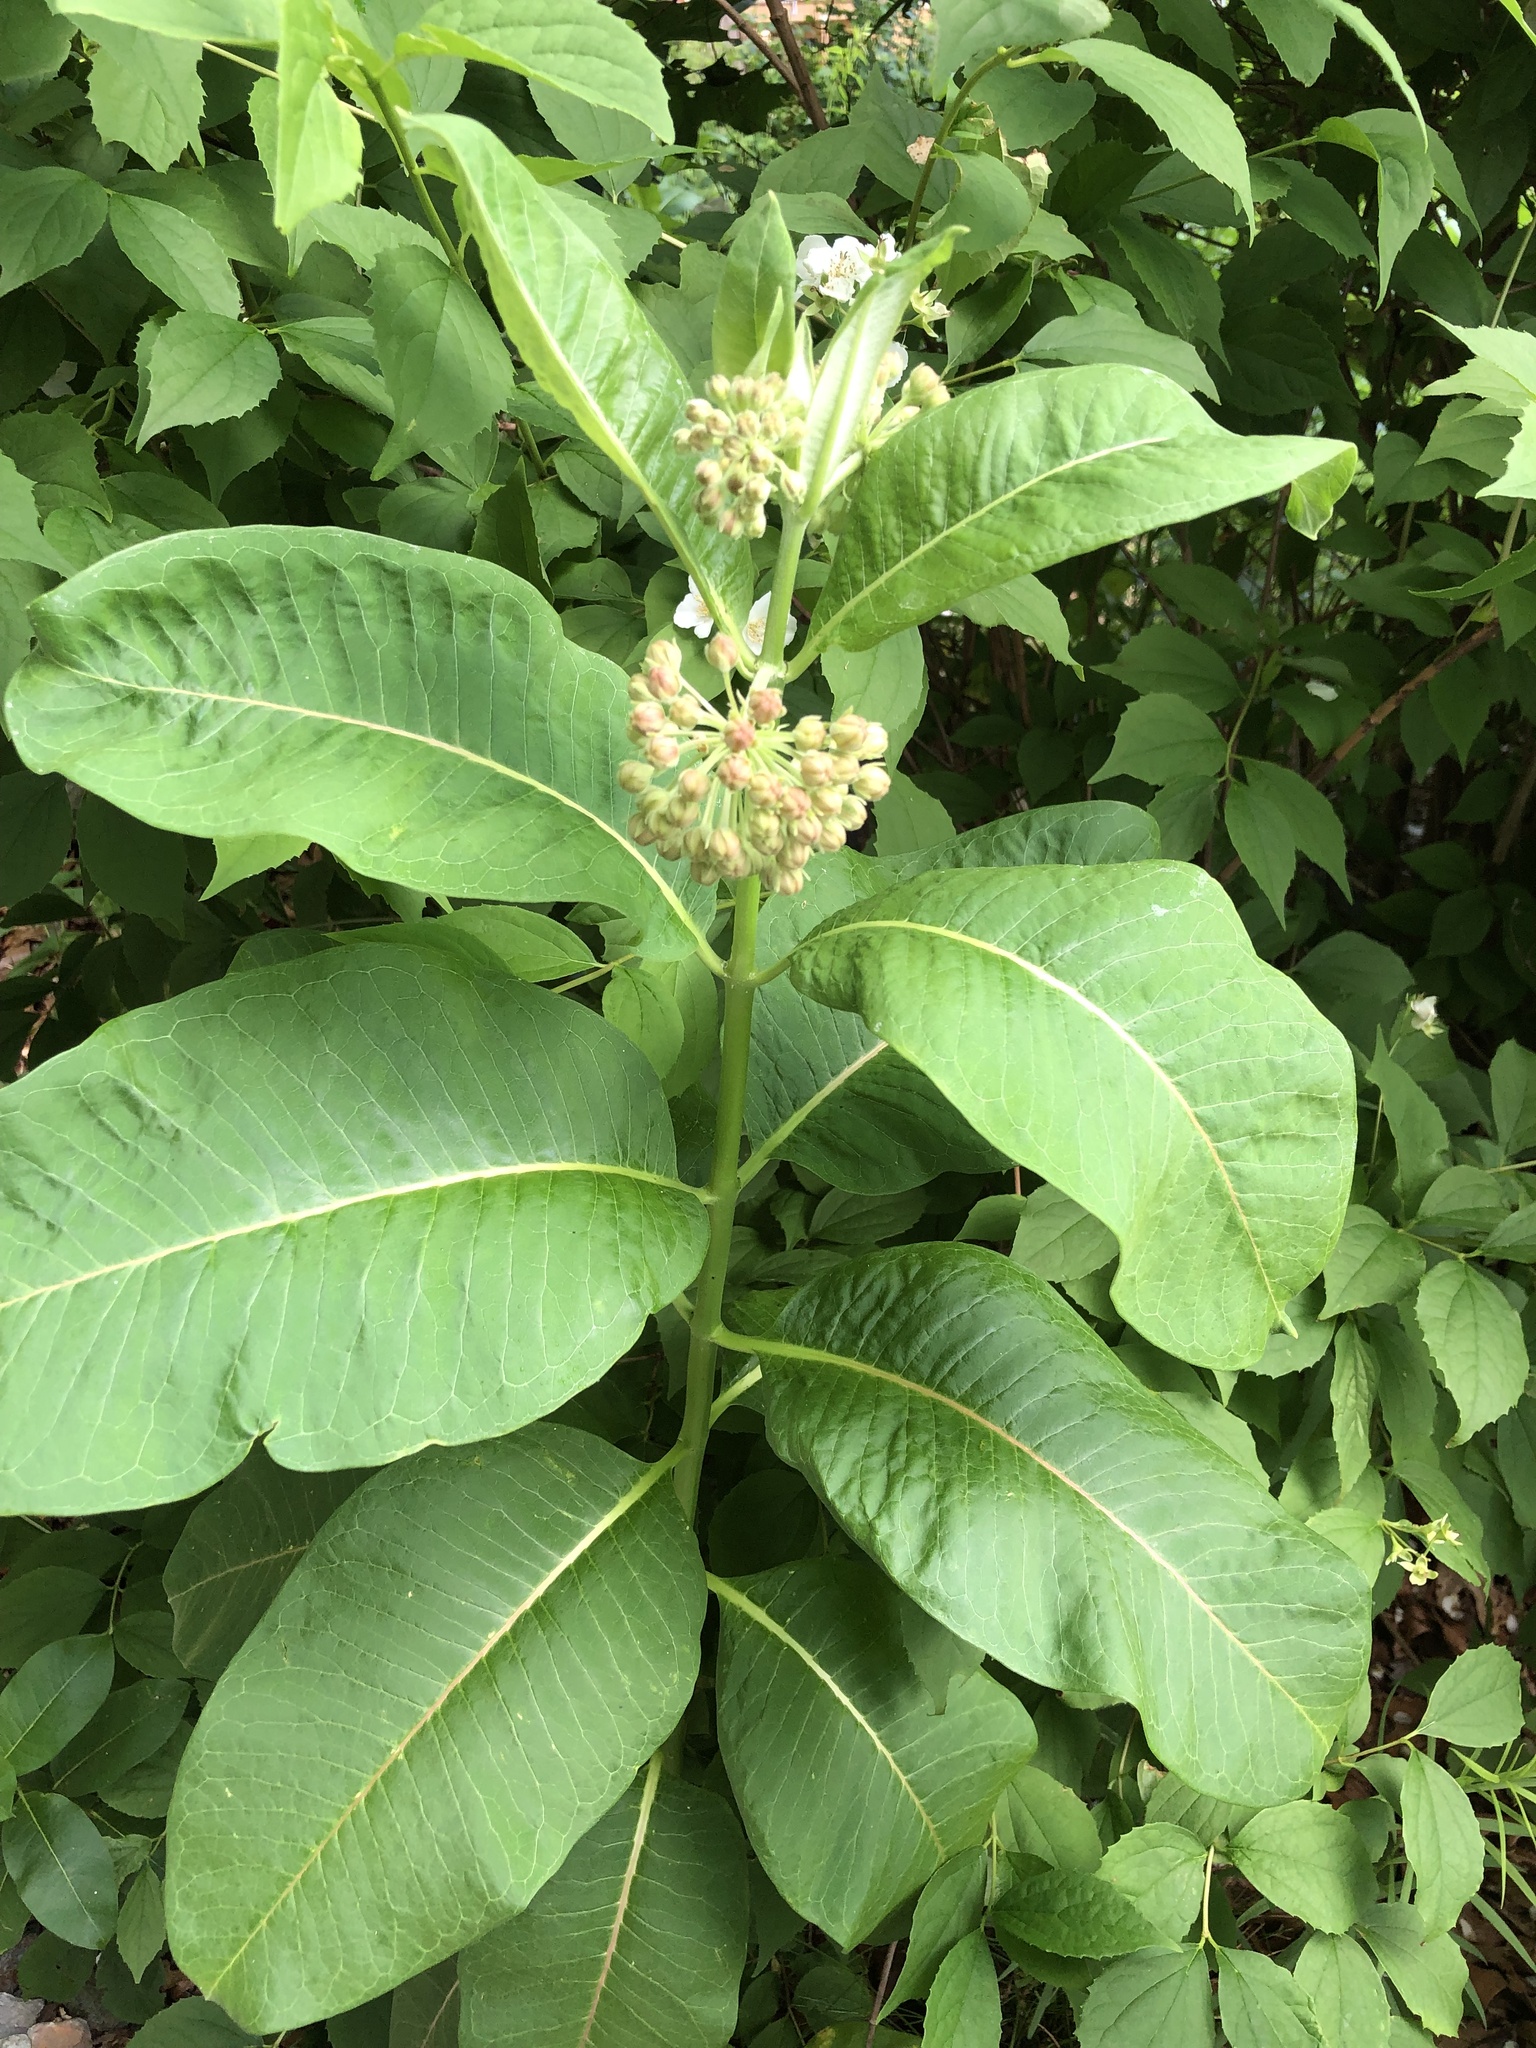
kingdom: Plantae
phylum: Tracheophyta
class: Magnoliopsida
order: Gentianales
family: Apocynaceae
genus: Asclepias
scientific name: Asclepias syriaca
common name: Common milkweed
